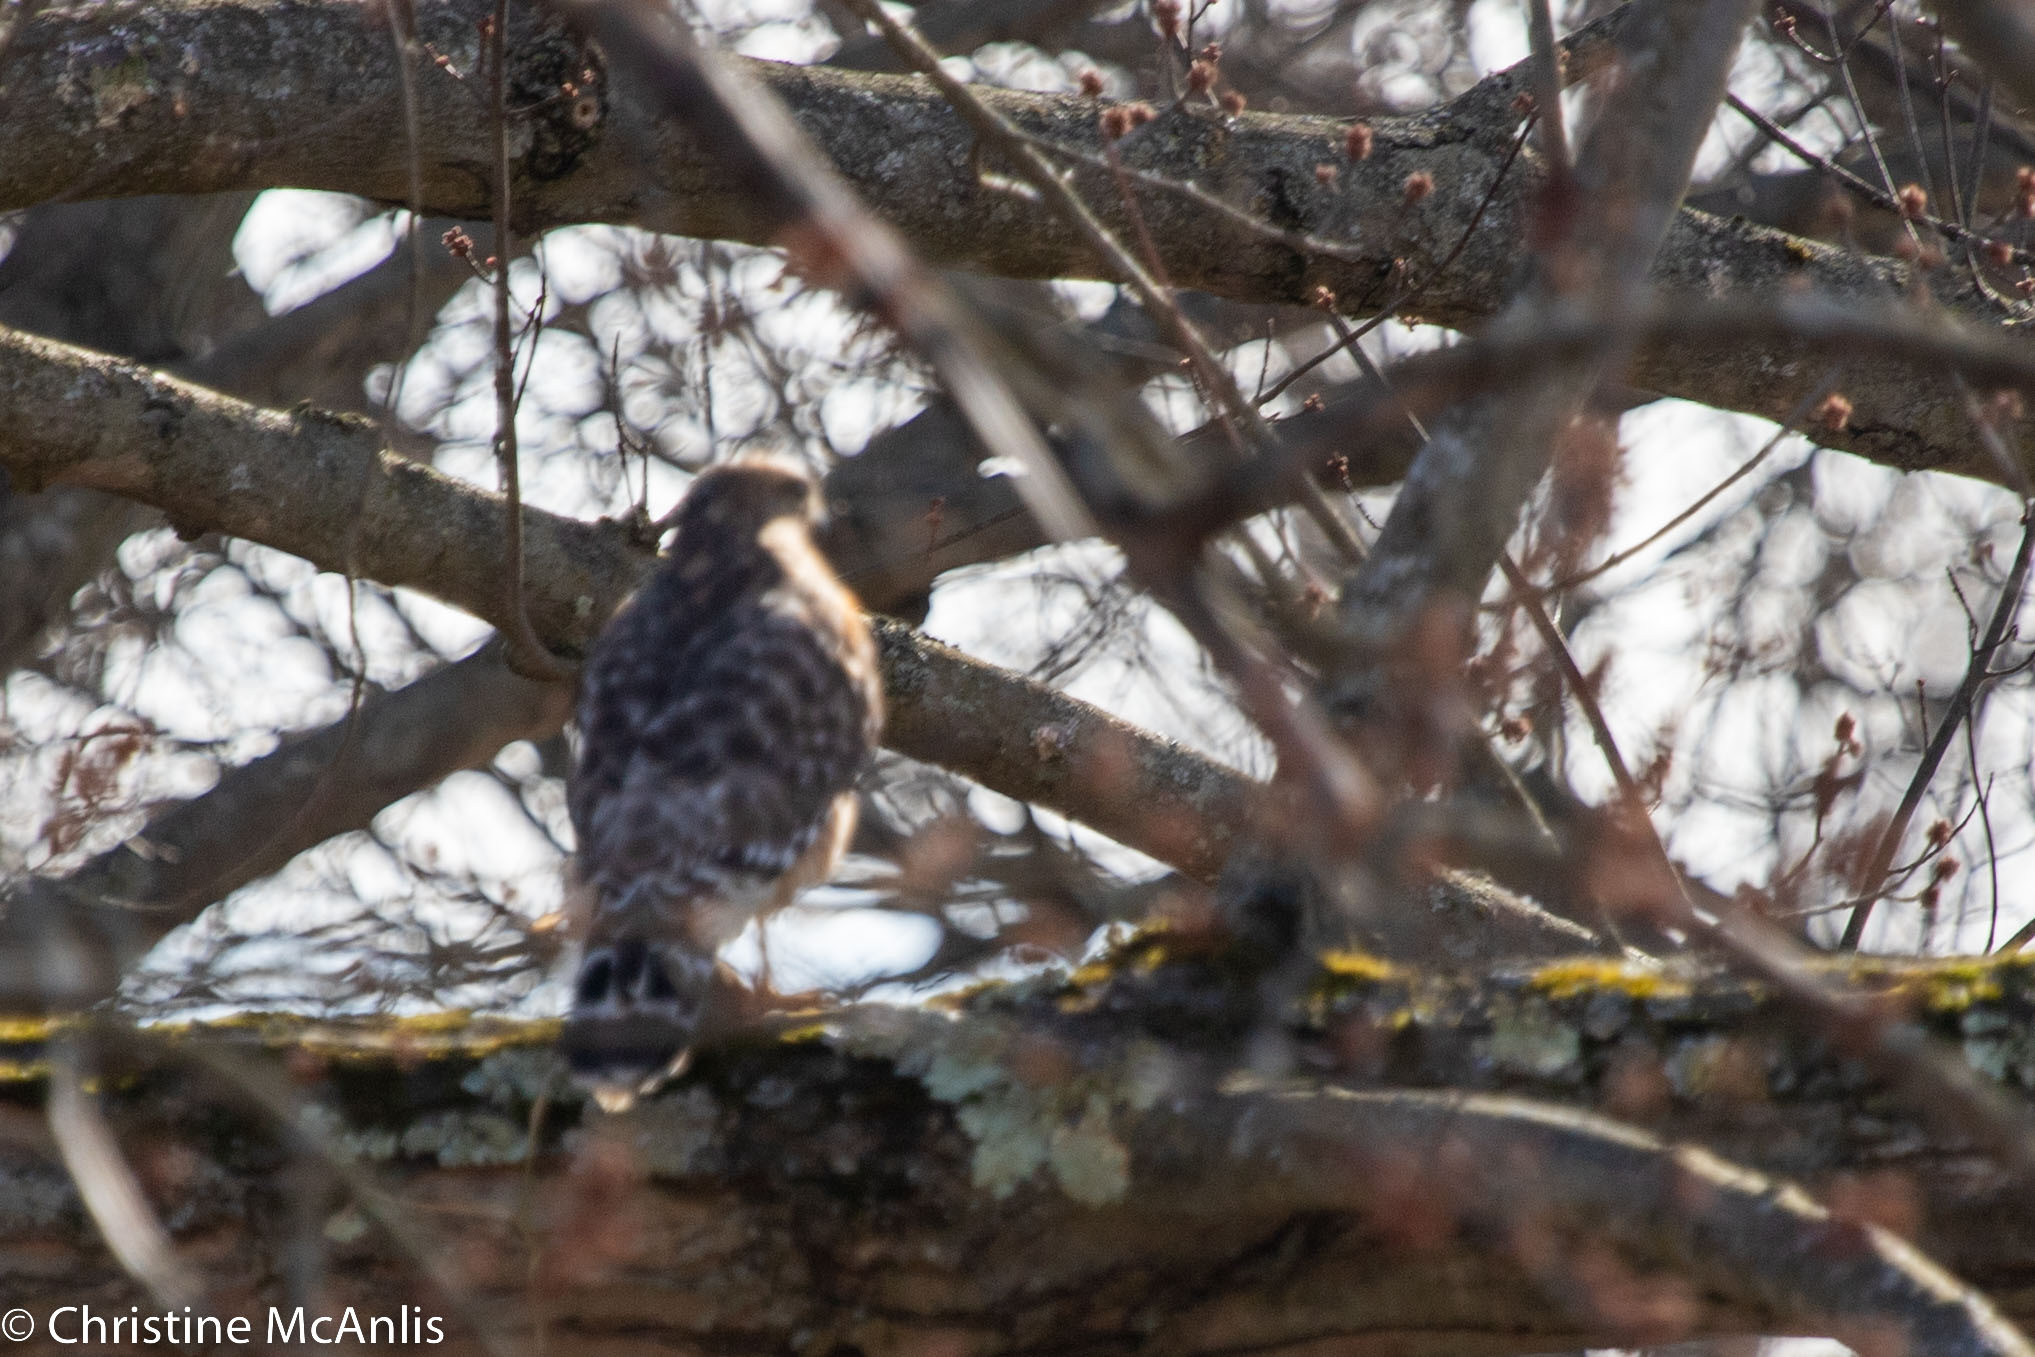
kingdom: Animalia
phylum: Chordata
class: Aves
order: Accipitriformes
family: Accipitridae
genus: Buteo
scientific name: Buteo lineatus
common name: Red-shouldered hawk
